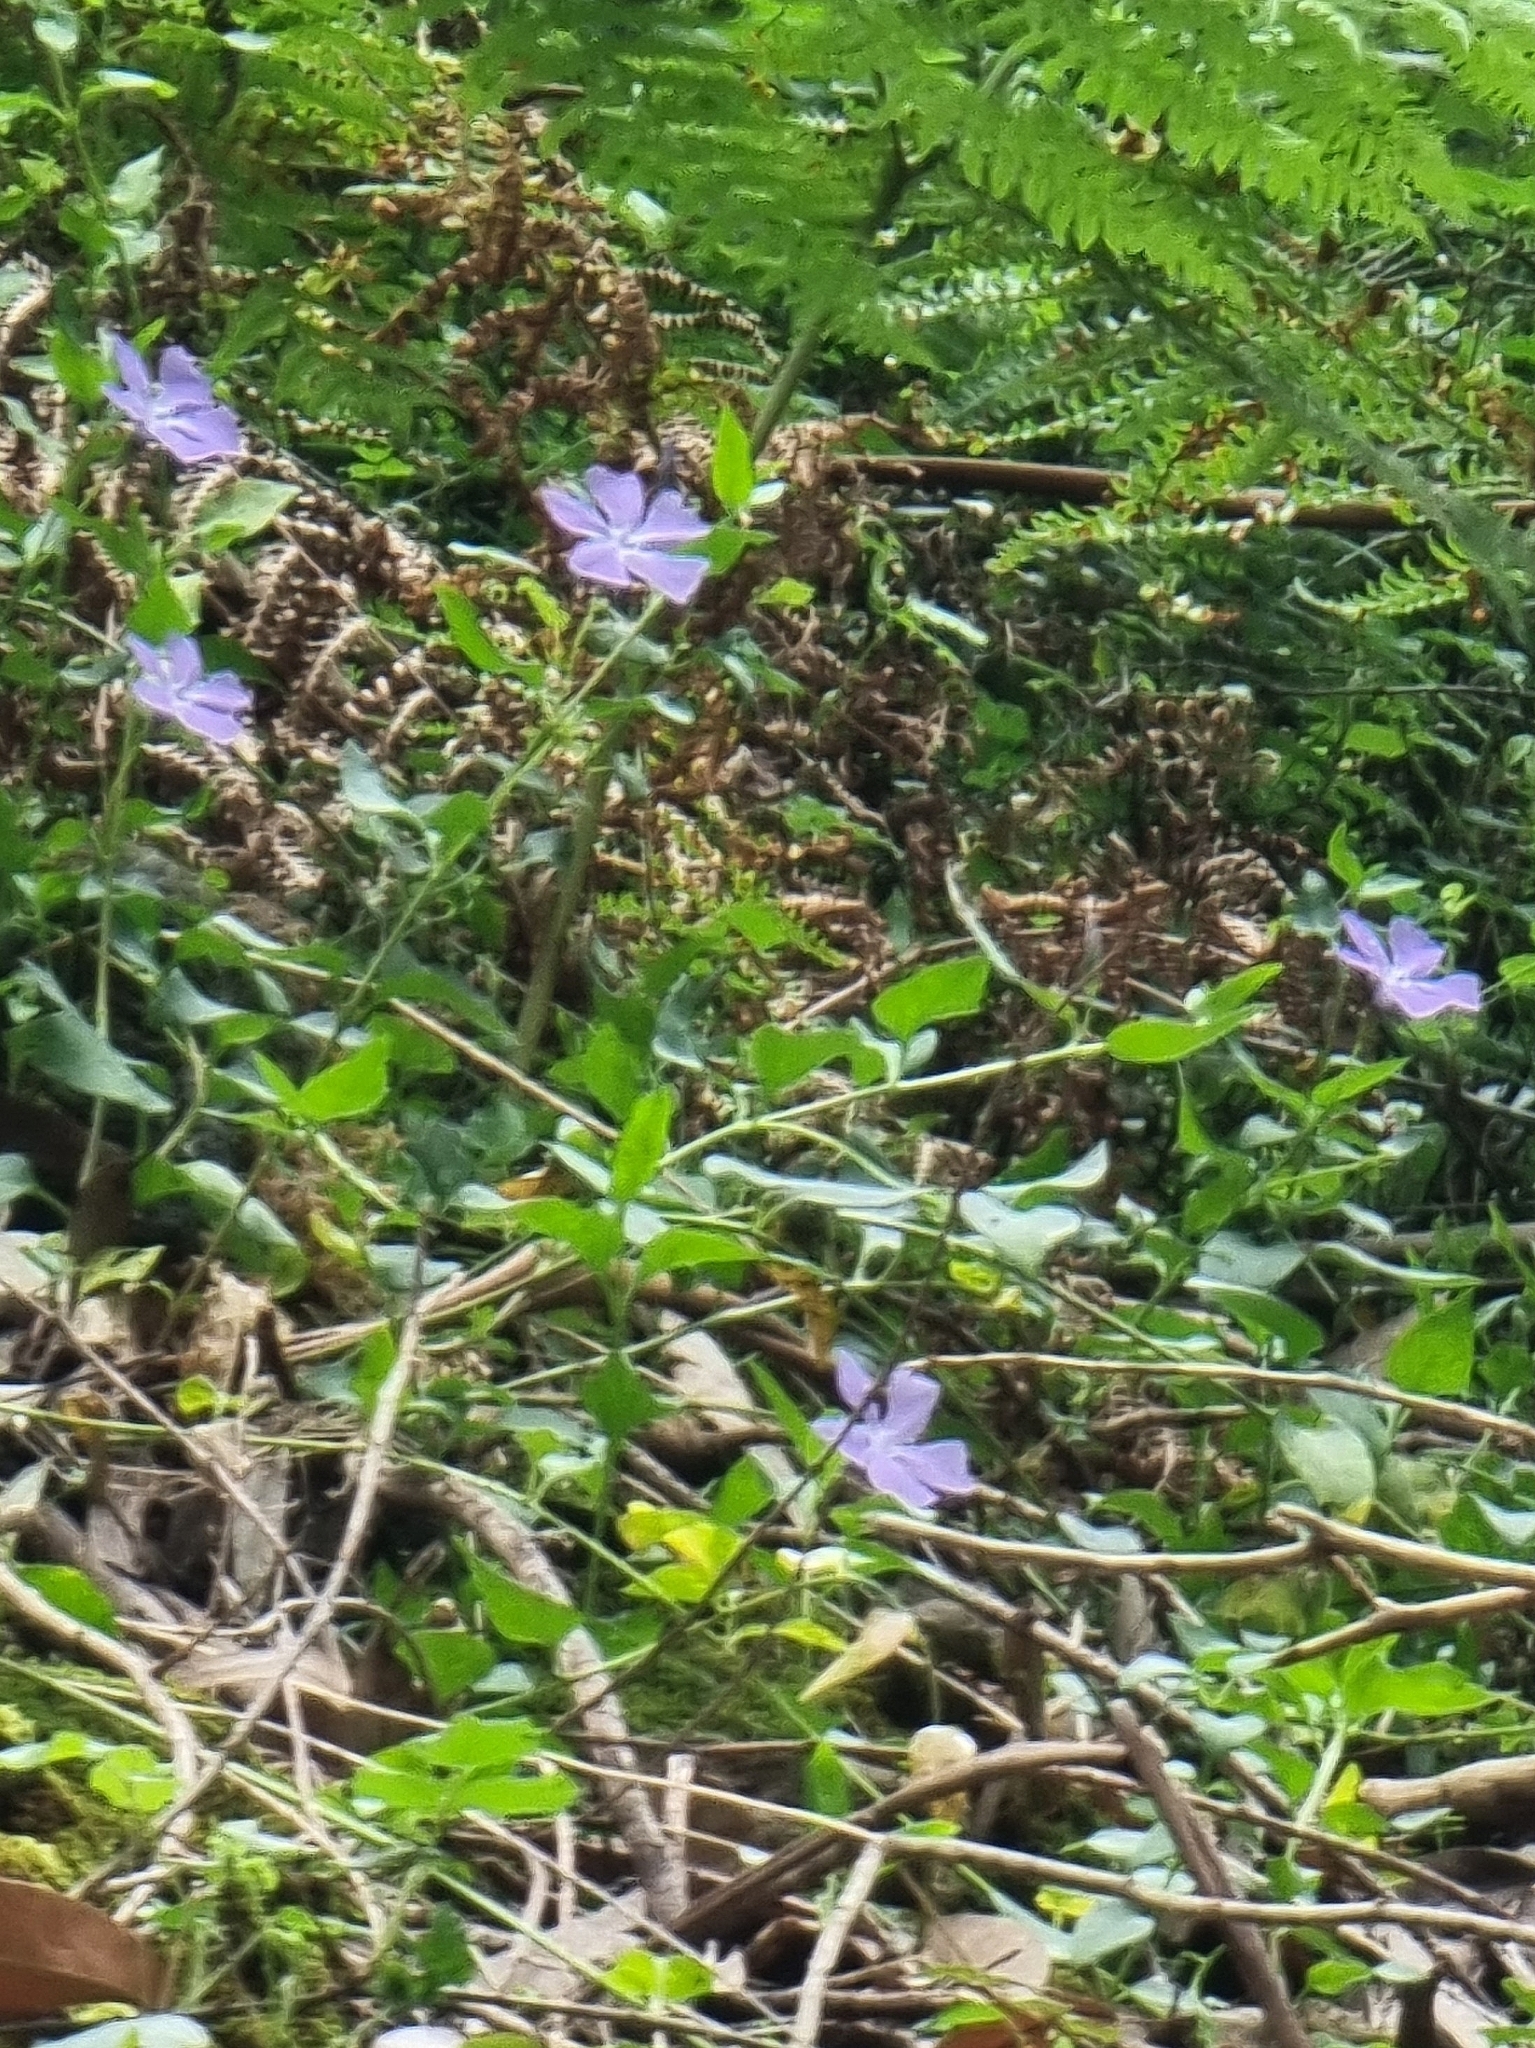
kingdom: Plantae
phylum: Tracheophyta
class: Magnoliopsida
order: Gentianales
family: Apocynaceae
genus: Vinca
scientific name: Vinca major
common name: Greater periwinkle
